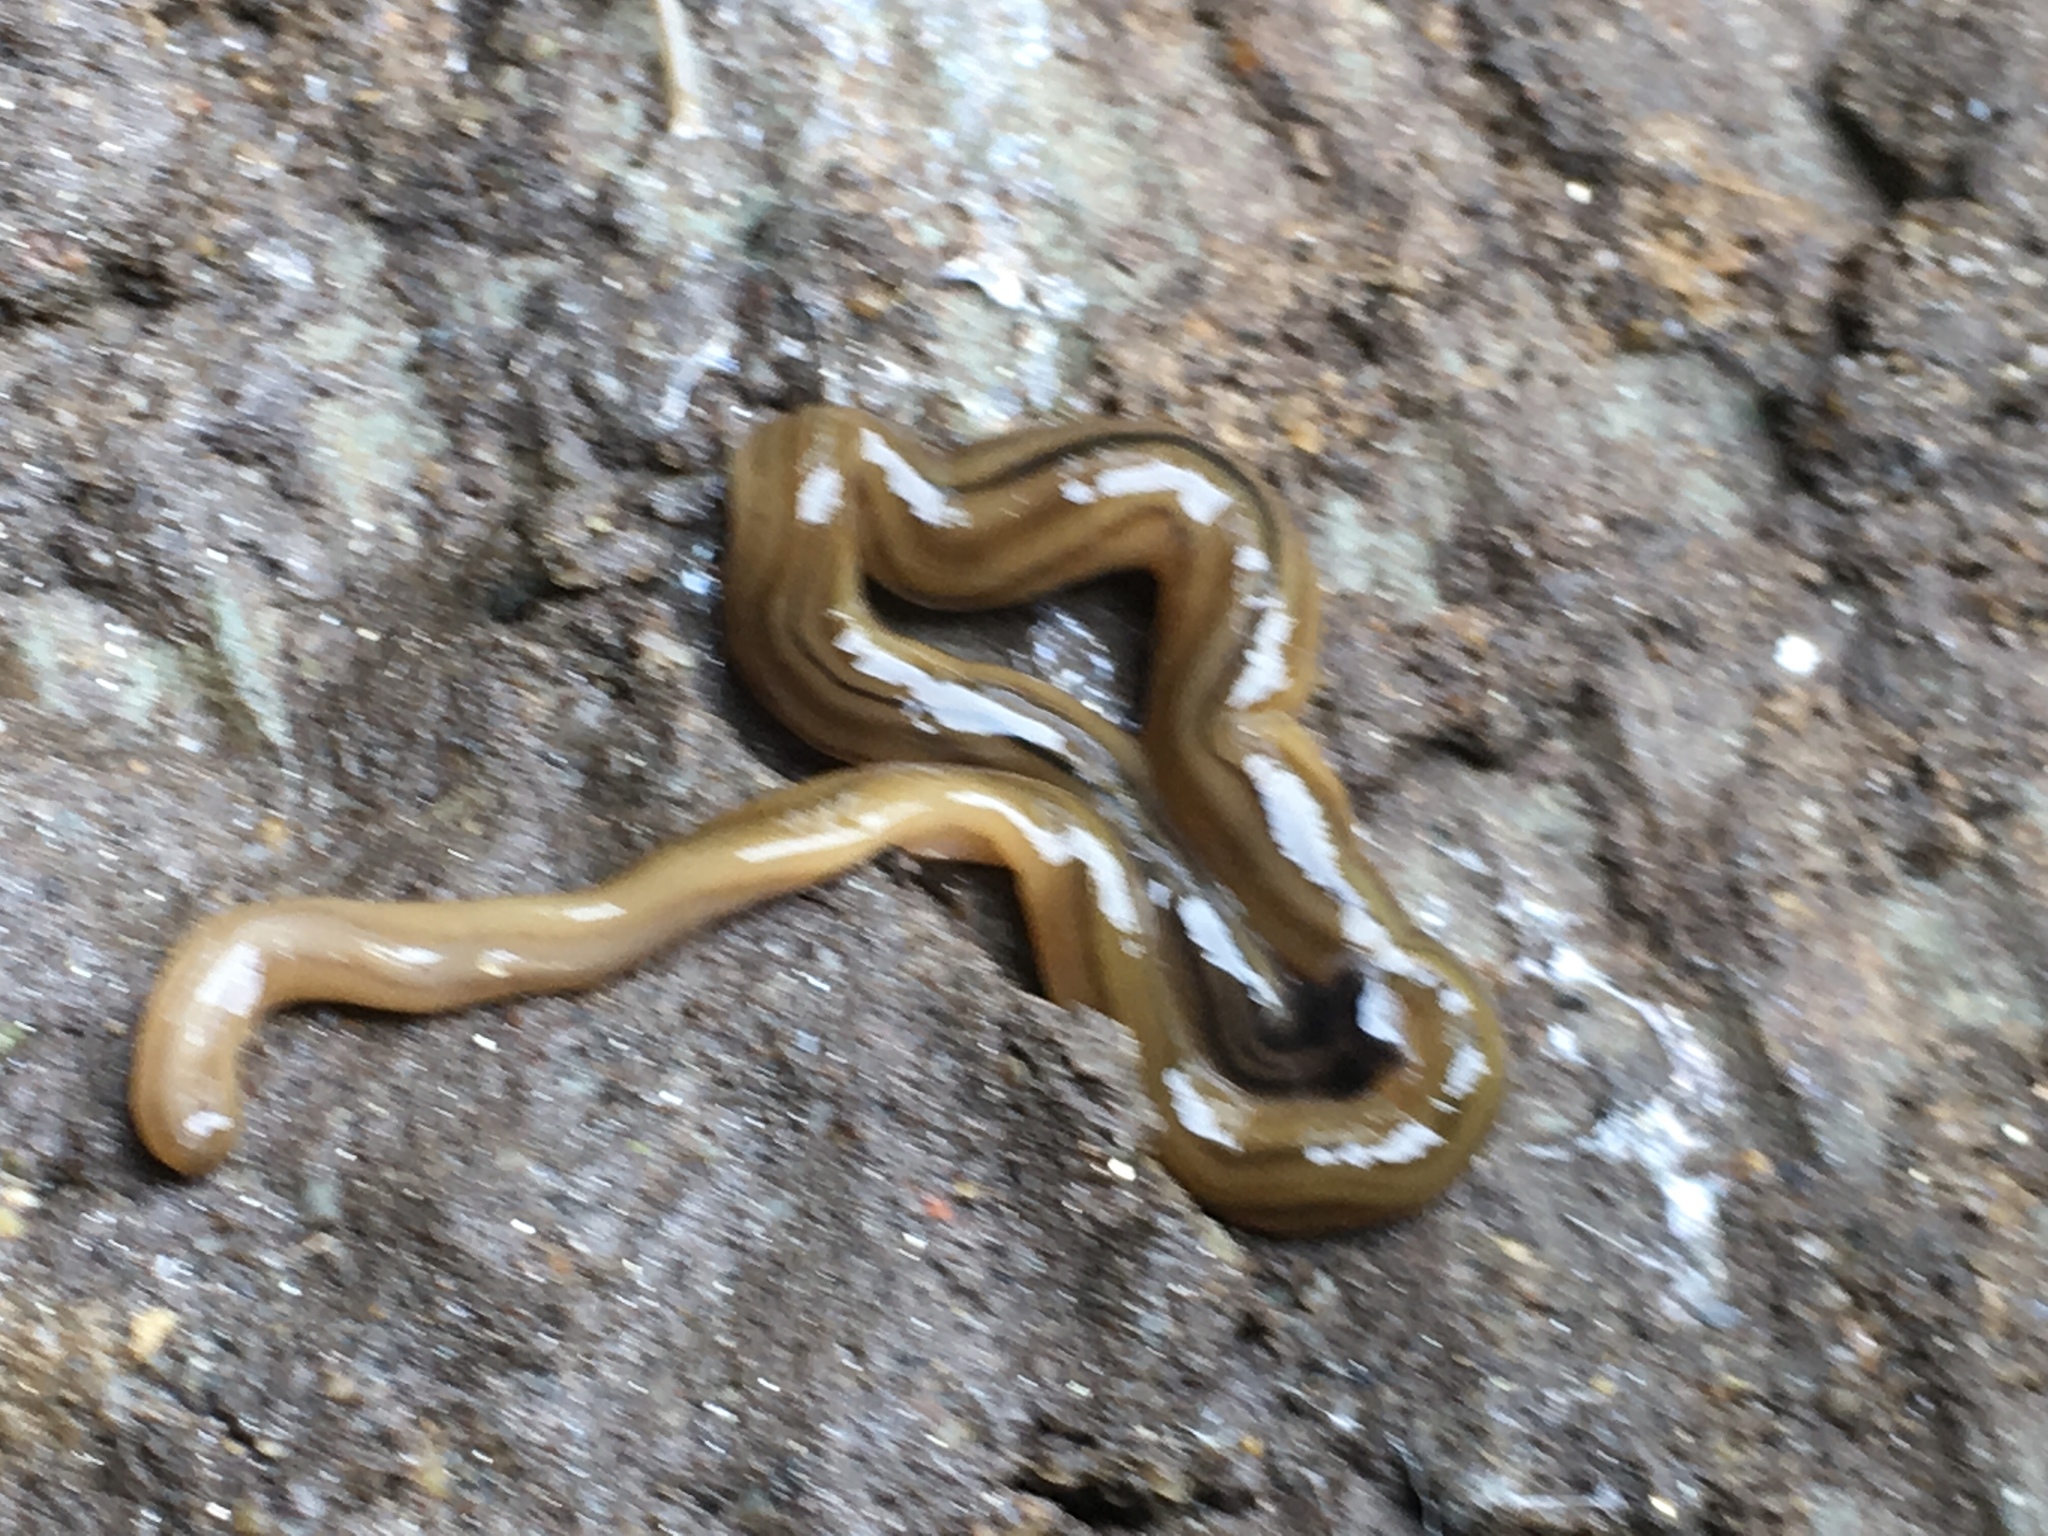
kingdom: Animalia
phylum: Platyhelminthes
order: Tricladida
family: Geoplanidae
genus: Bipalium
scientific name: Bipalium kewense
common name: Hammerhead flatworm
